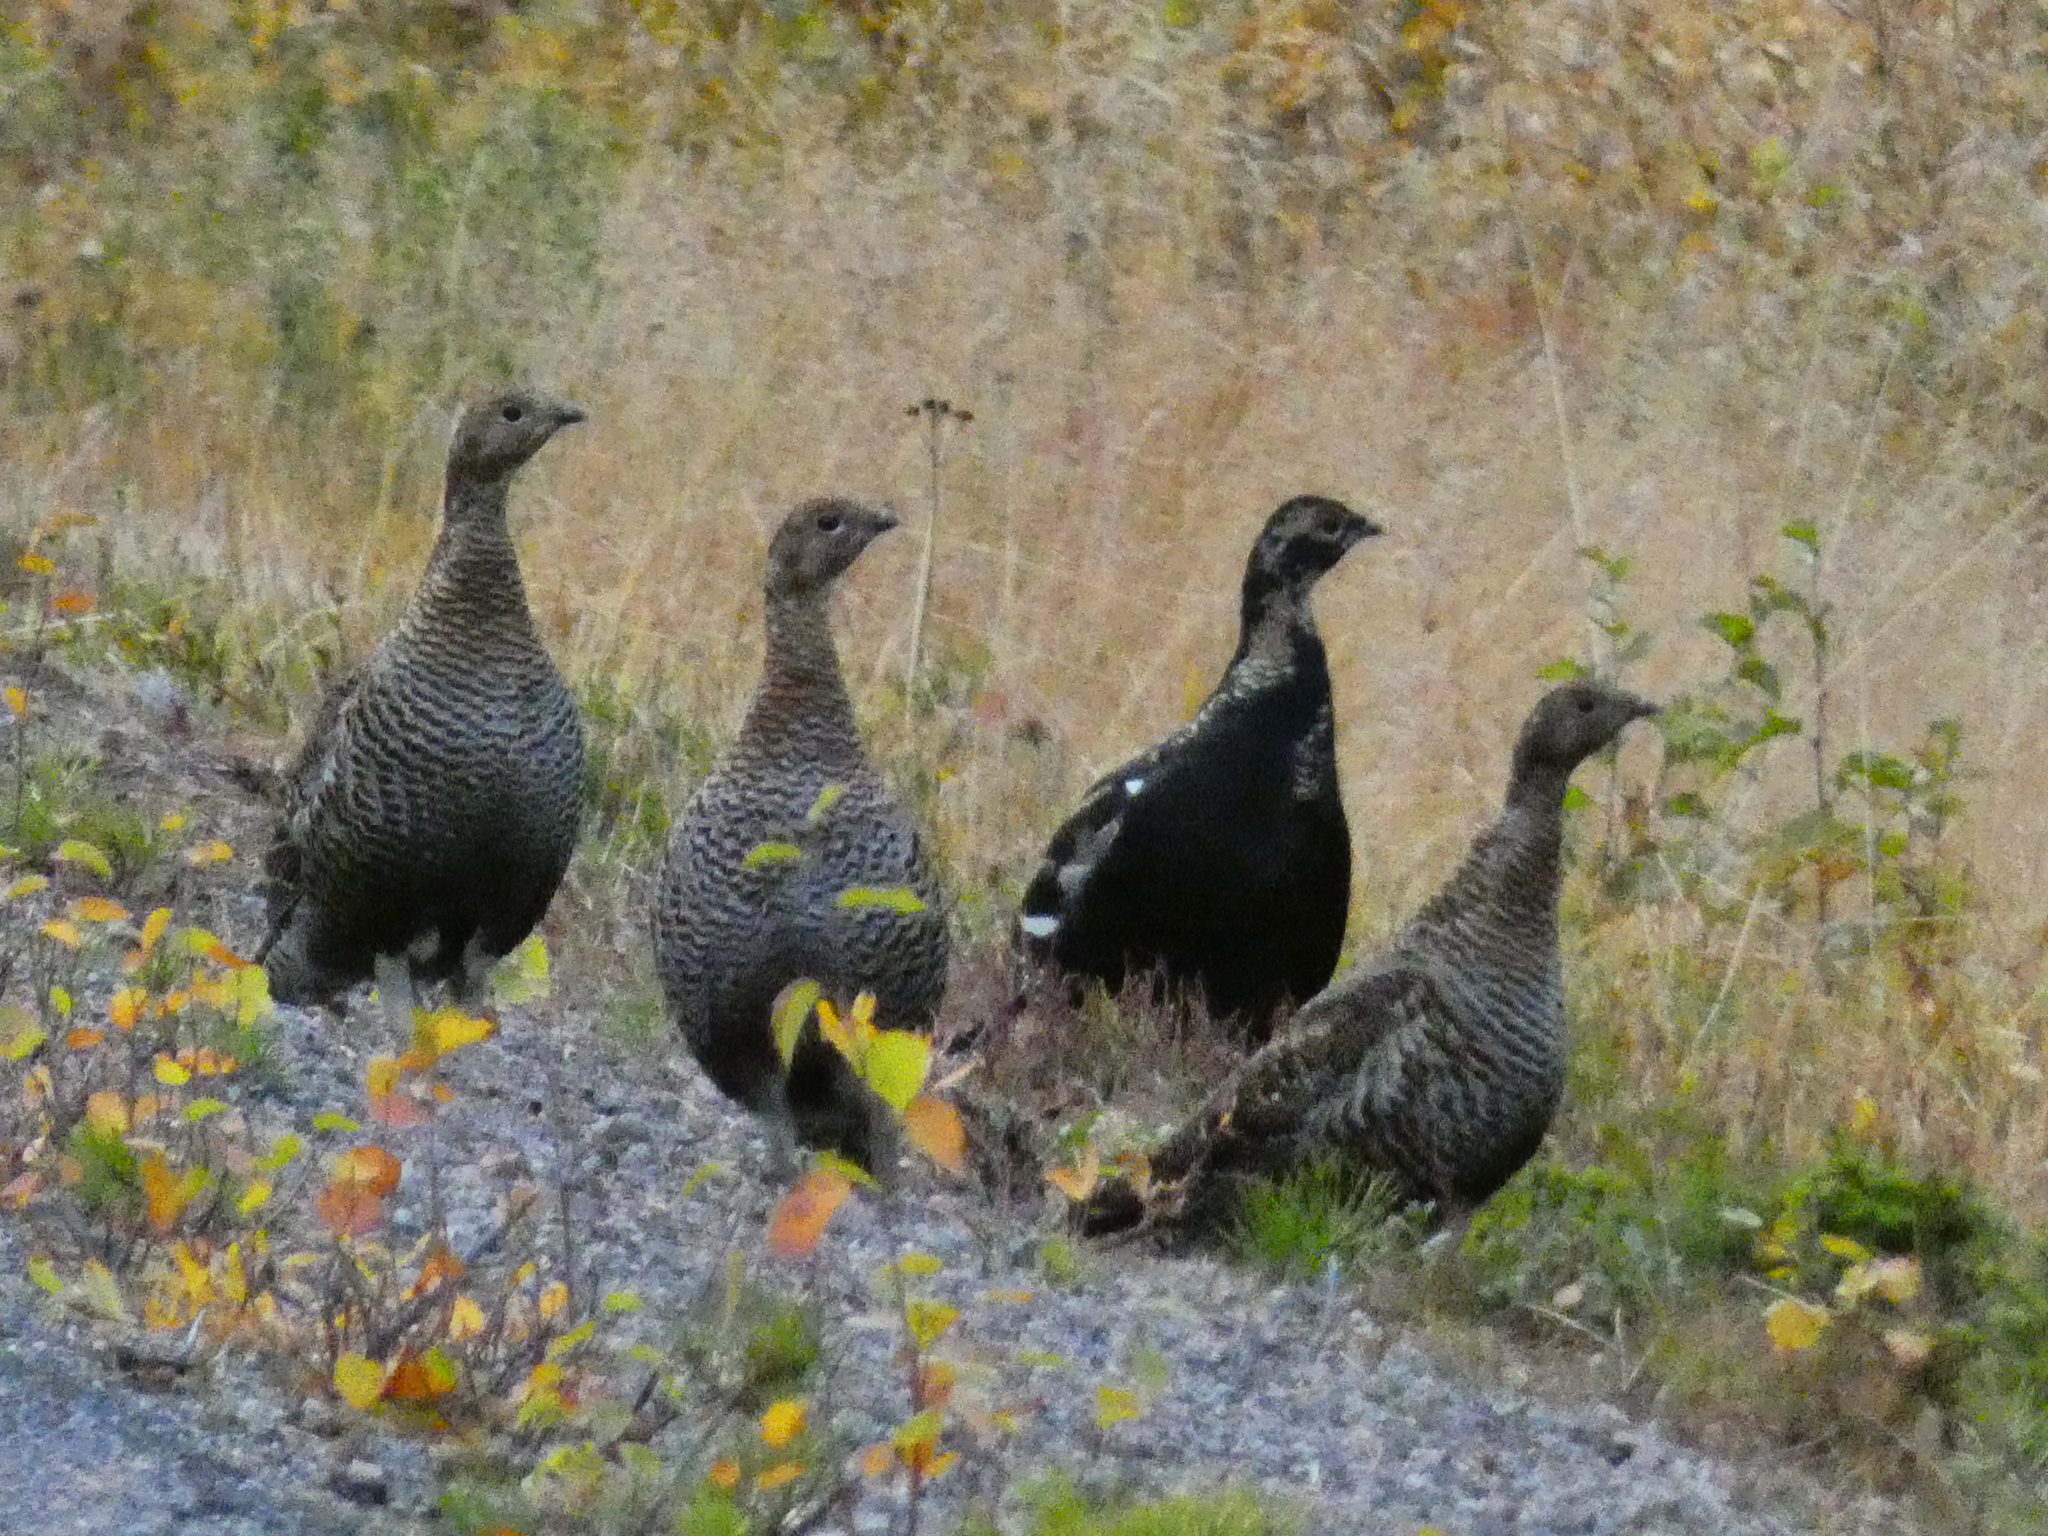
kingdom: Animalia
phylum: Chordata
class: Aves
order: Galliformes
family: Phasianidae
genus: Lyrurus
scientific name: Lyrurus tetrix
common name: Black grouse
